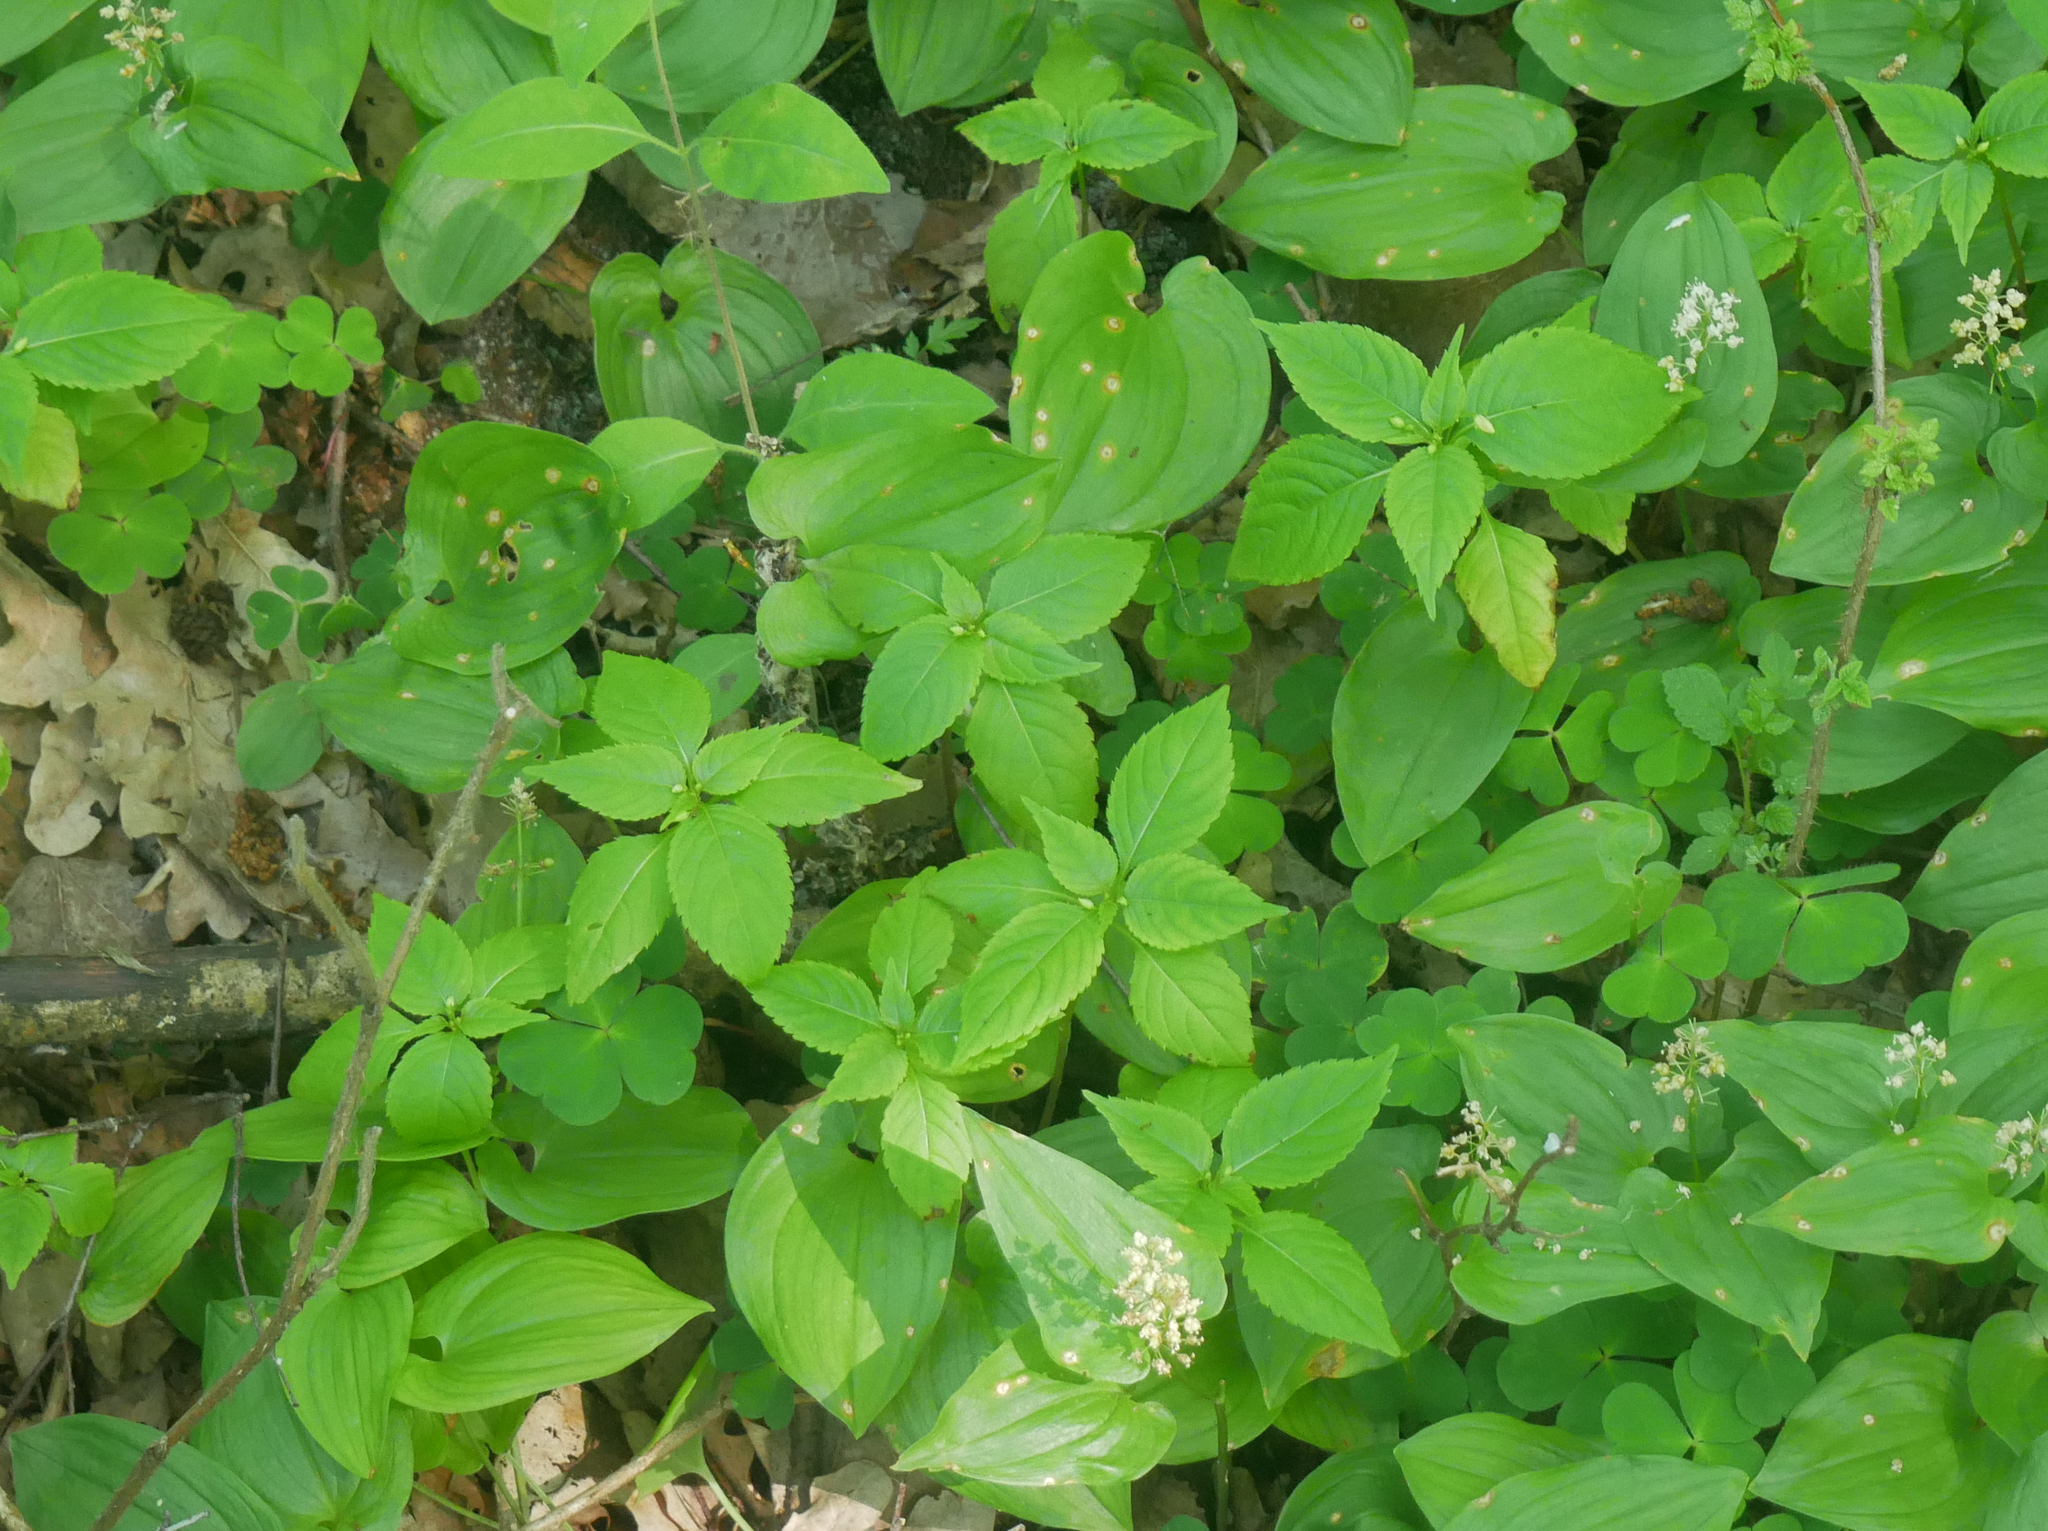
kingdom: Plantae
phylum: Tracheophyta
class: Magnoliopsida
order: Ericales
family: Balsaminaceae
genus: Impatiens
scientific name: Impatiens parviflora
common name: Small balsam
